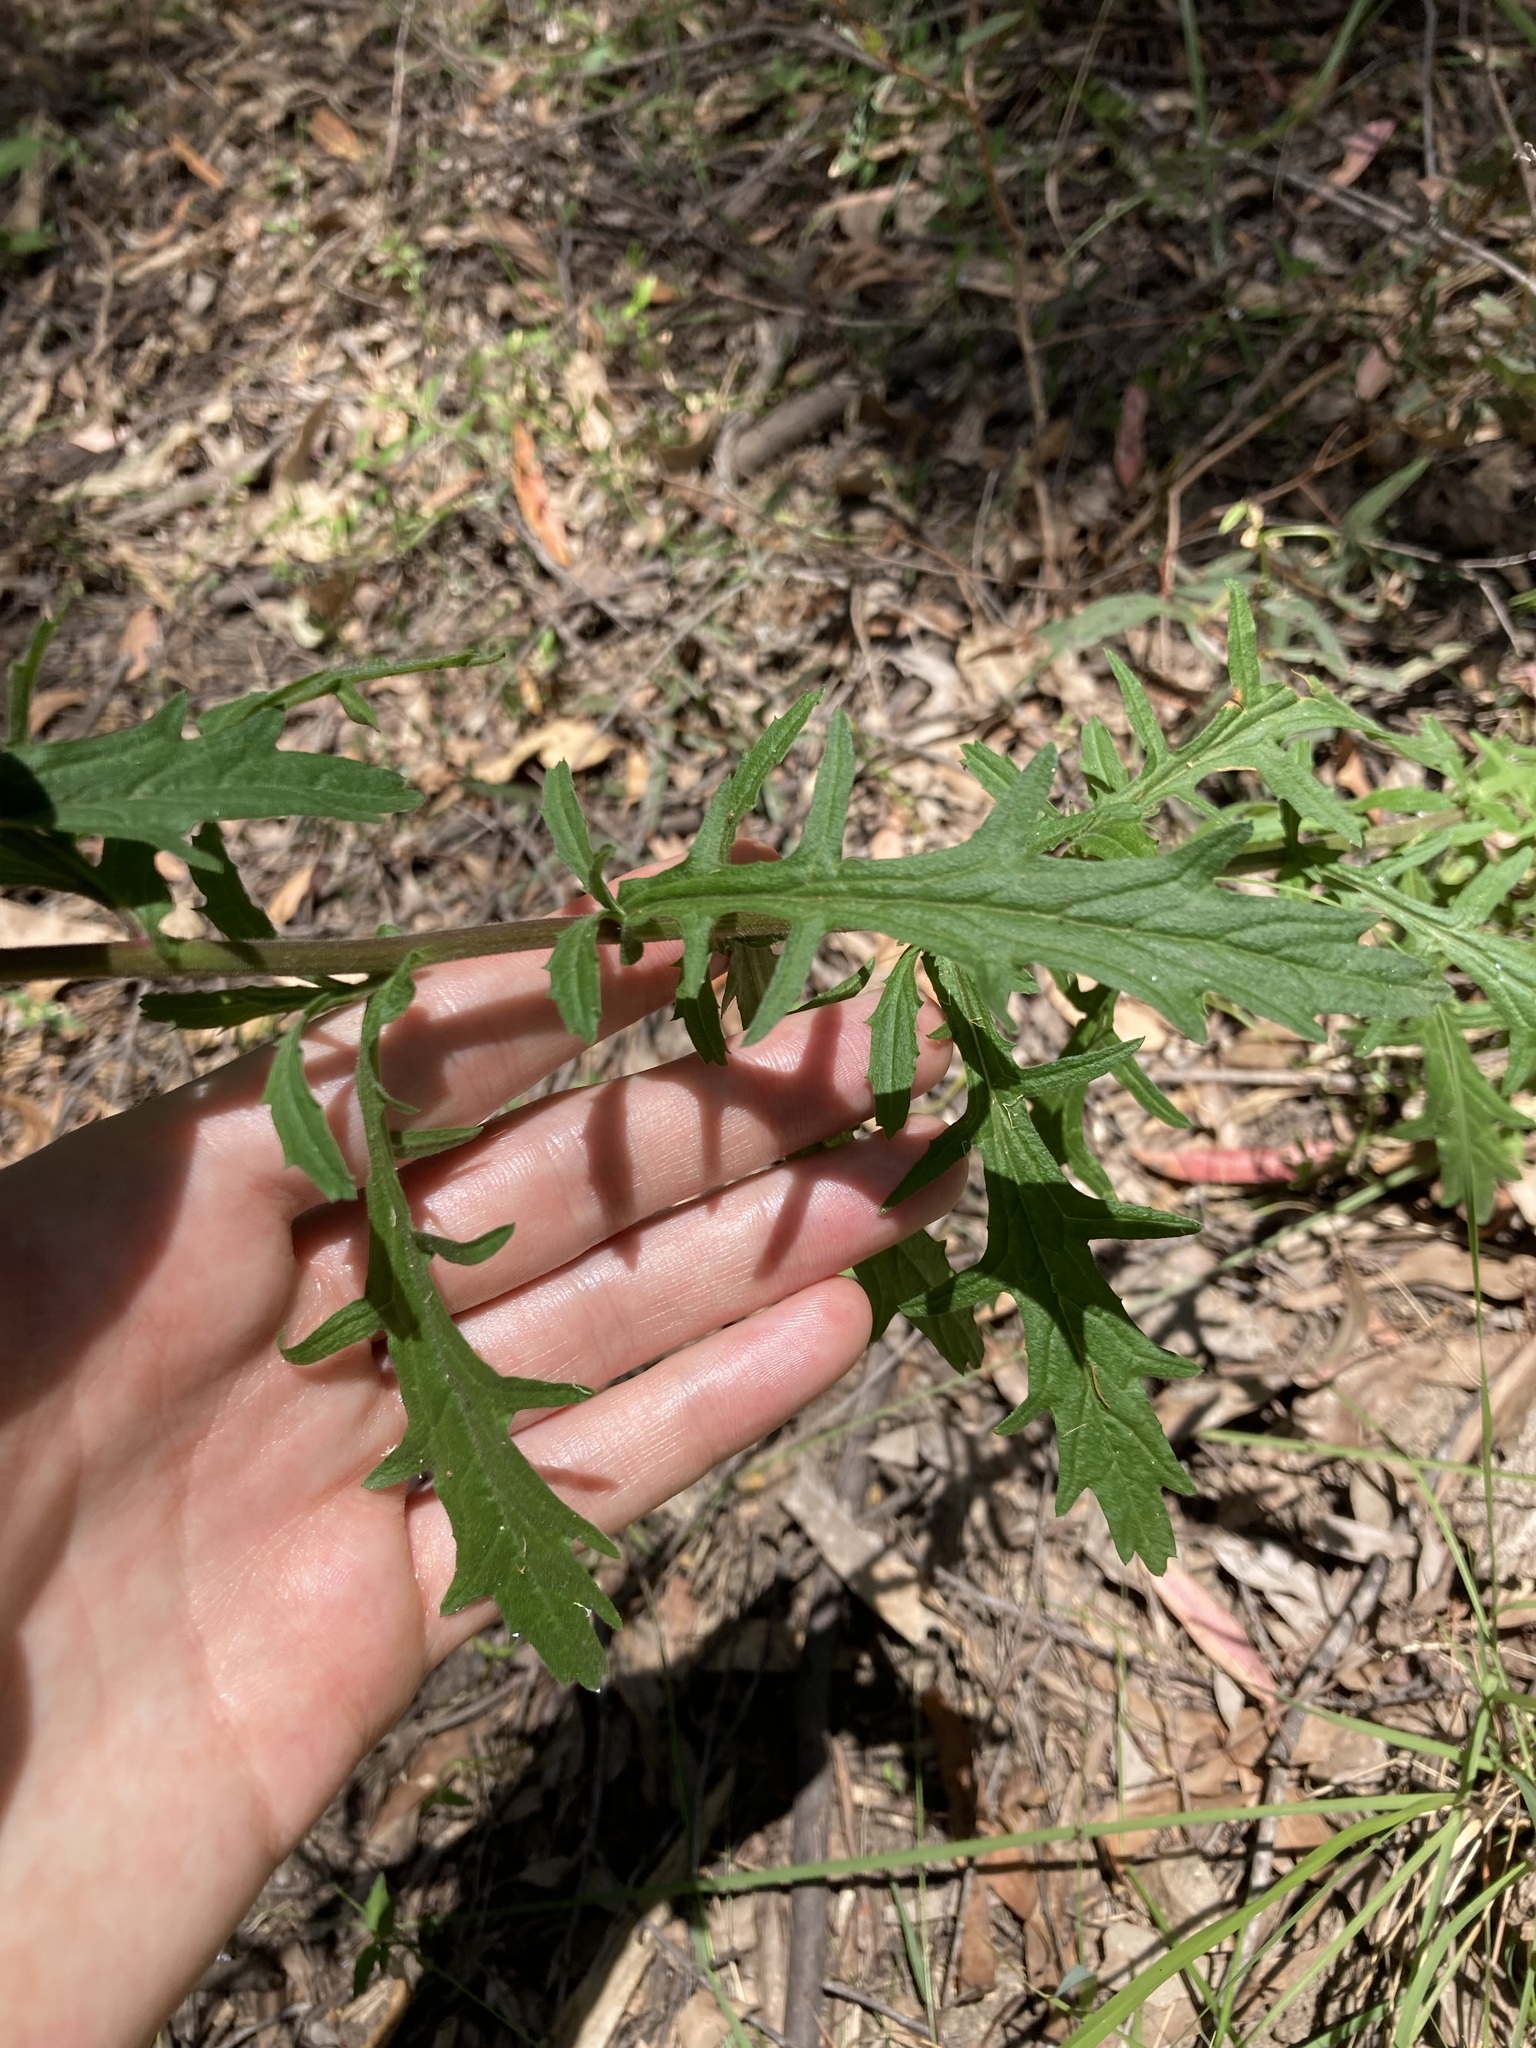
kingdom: Plantae
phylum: Tracheophyta
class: Magnoliopsida
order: Asterales
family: Asteraceae
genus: Calotis
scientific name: Calotis dentex
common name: White bur-daisy
